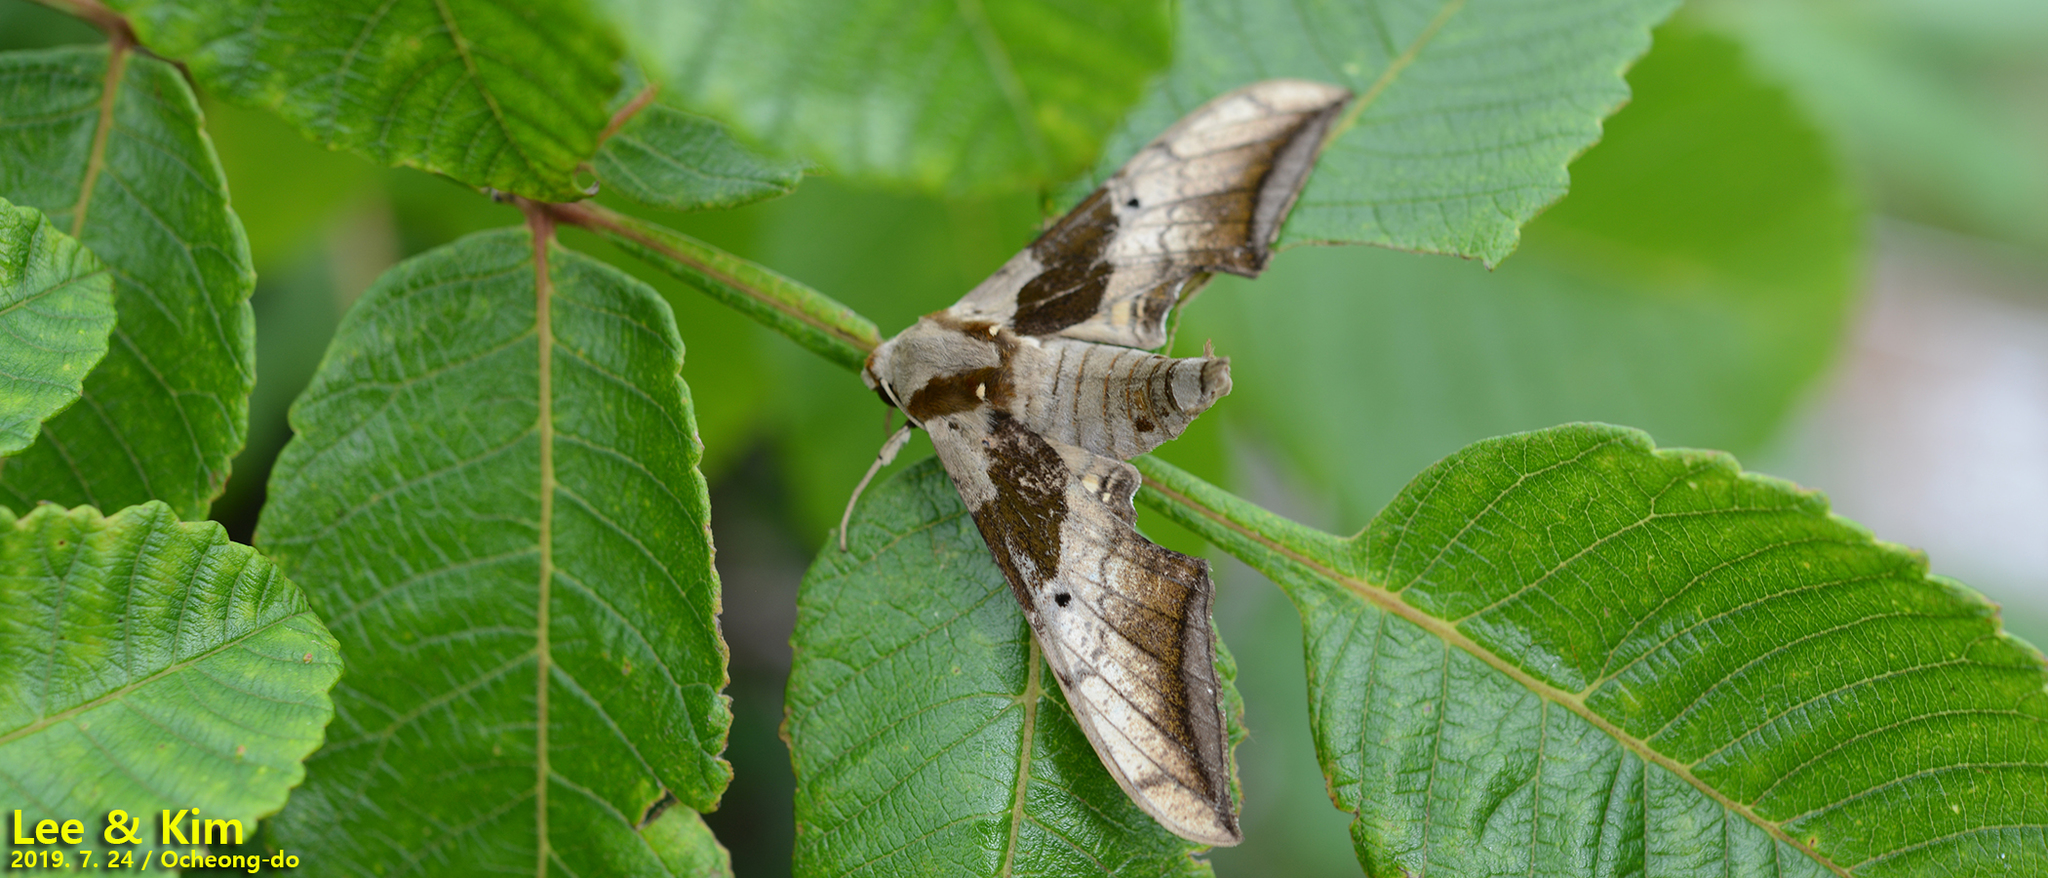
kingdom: Animalia
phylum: Arthropoda
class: Insecta
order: Lepidoptera
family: Sphingidae
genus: Ambulyx
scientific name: Ambulyx japonica
